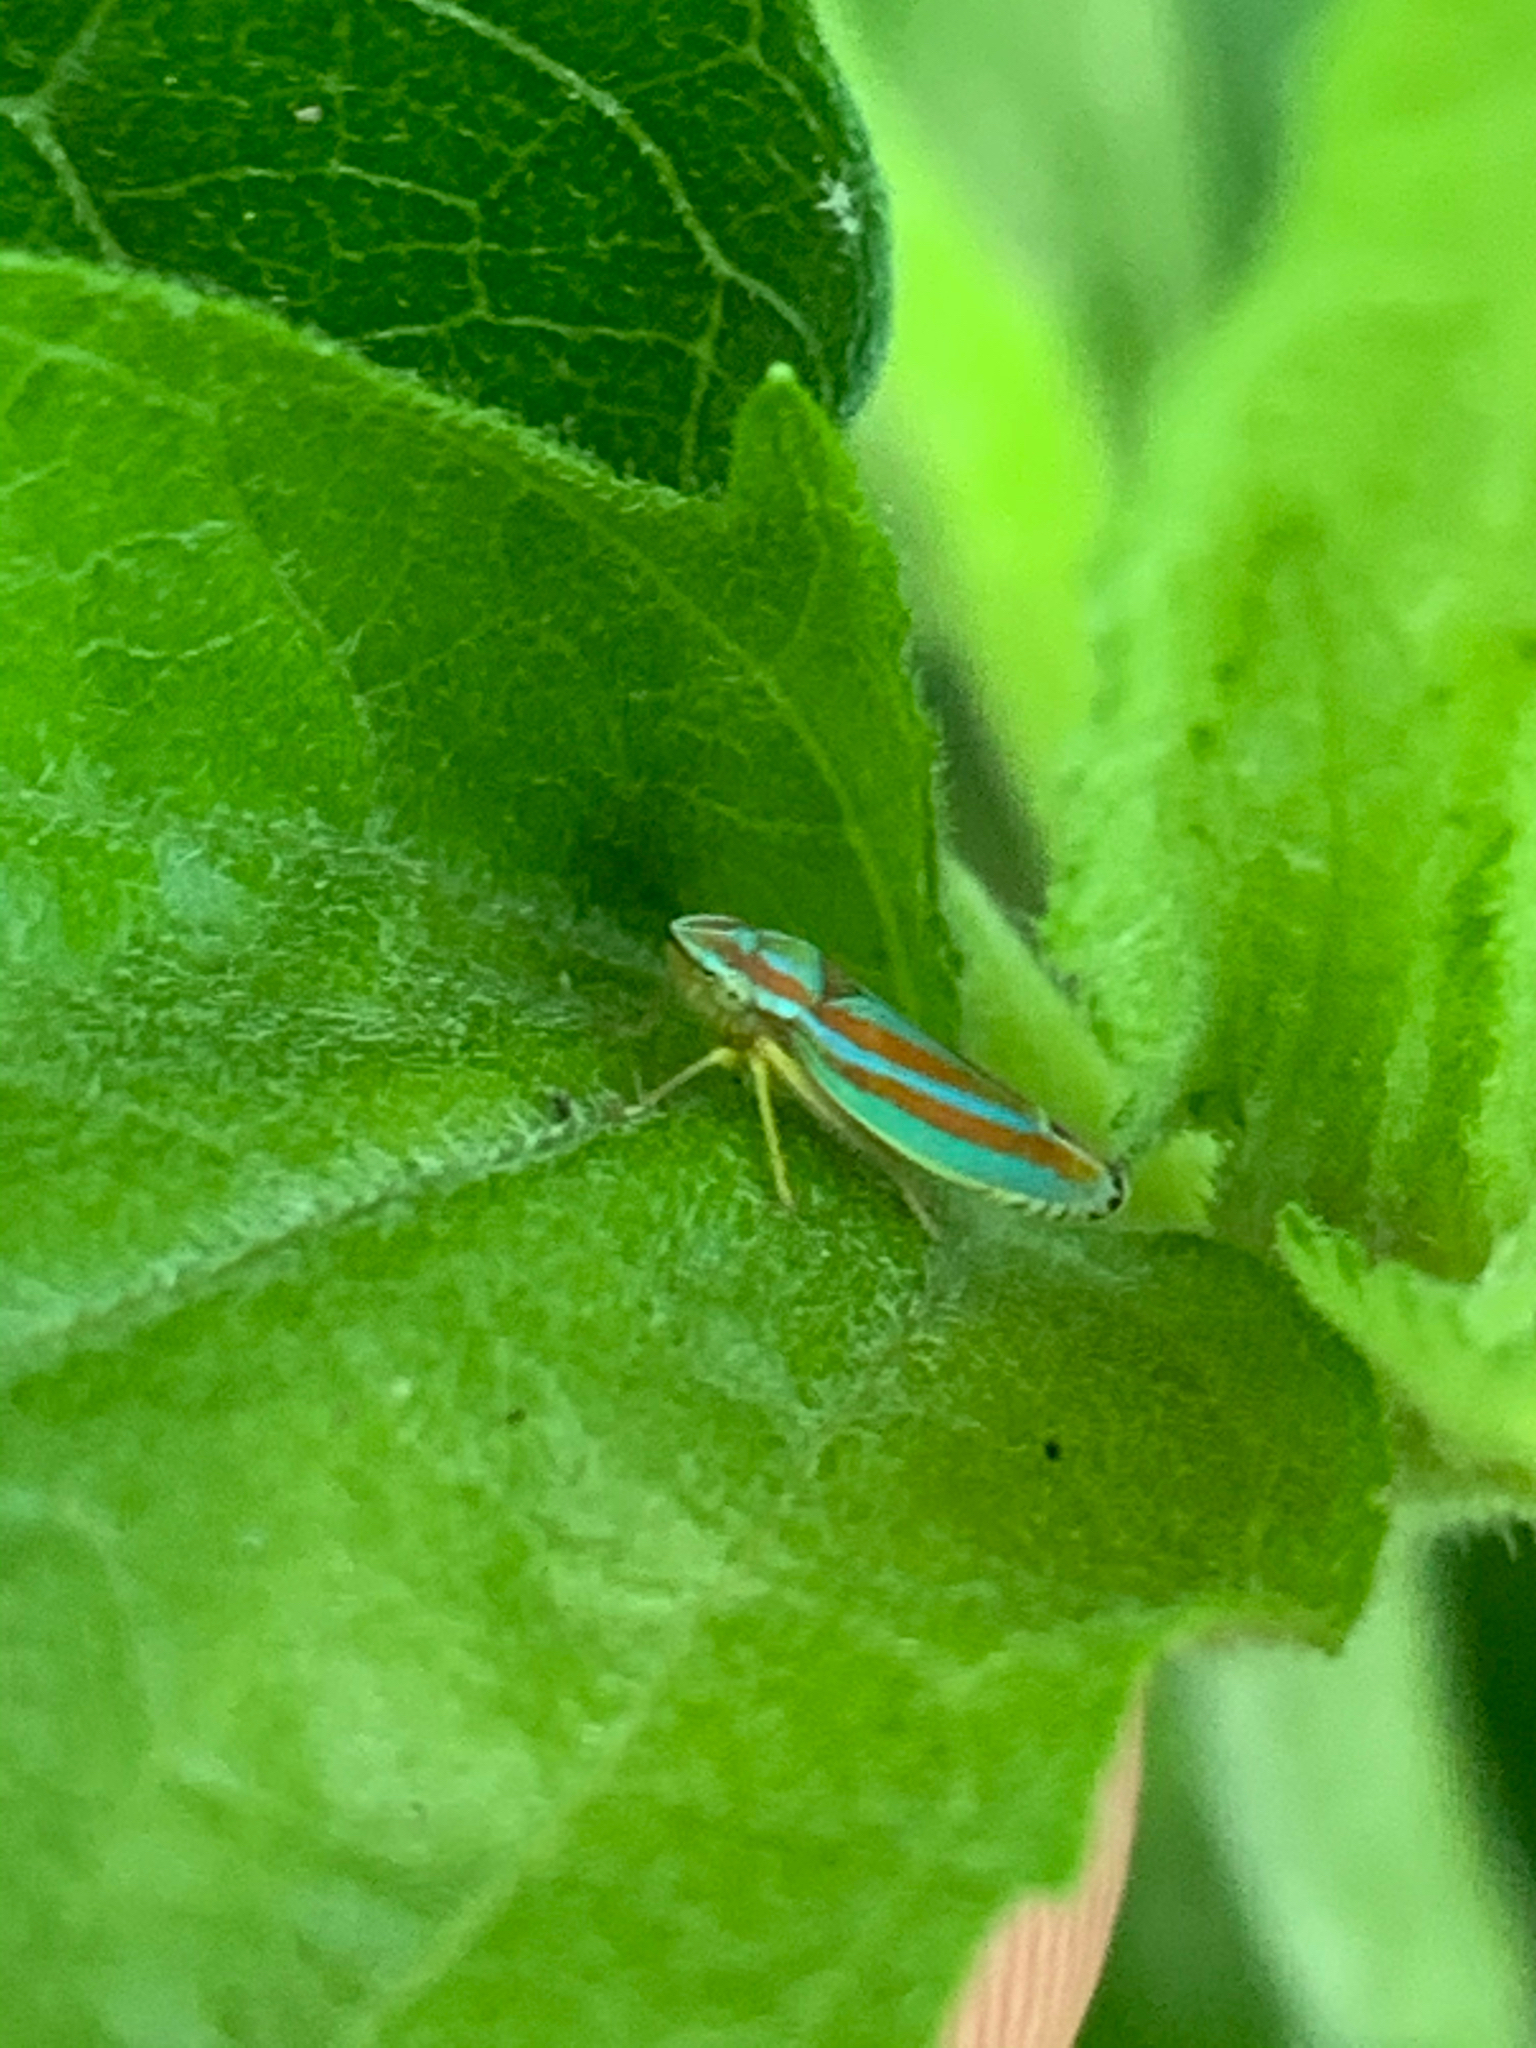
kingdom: Animalia
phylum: Arthropoda
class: Insecta
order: Hemiptera
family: Cicadellidae
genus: Graphocephala
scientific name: Graphocephala versuta
